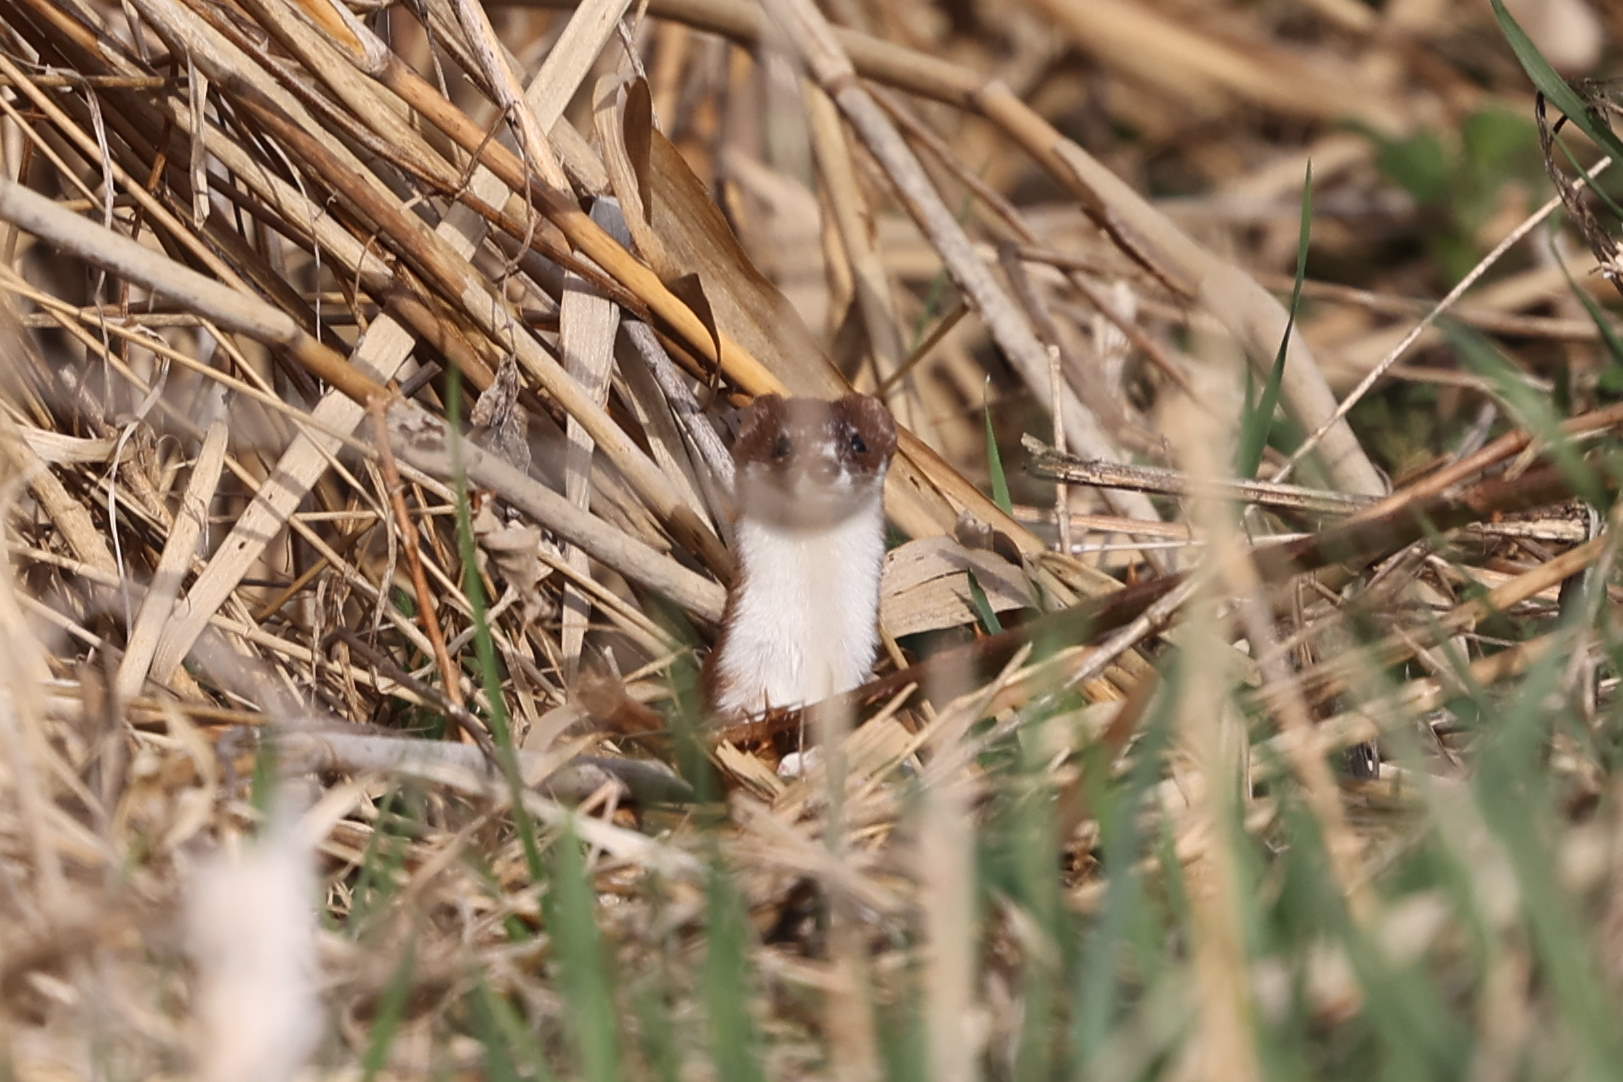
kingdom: Animalia
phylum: Chordata
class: Mammalia
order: Carnivora
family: Mustelidae
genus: Mustela
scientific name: Mustela erminea
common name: Stoat
